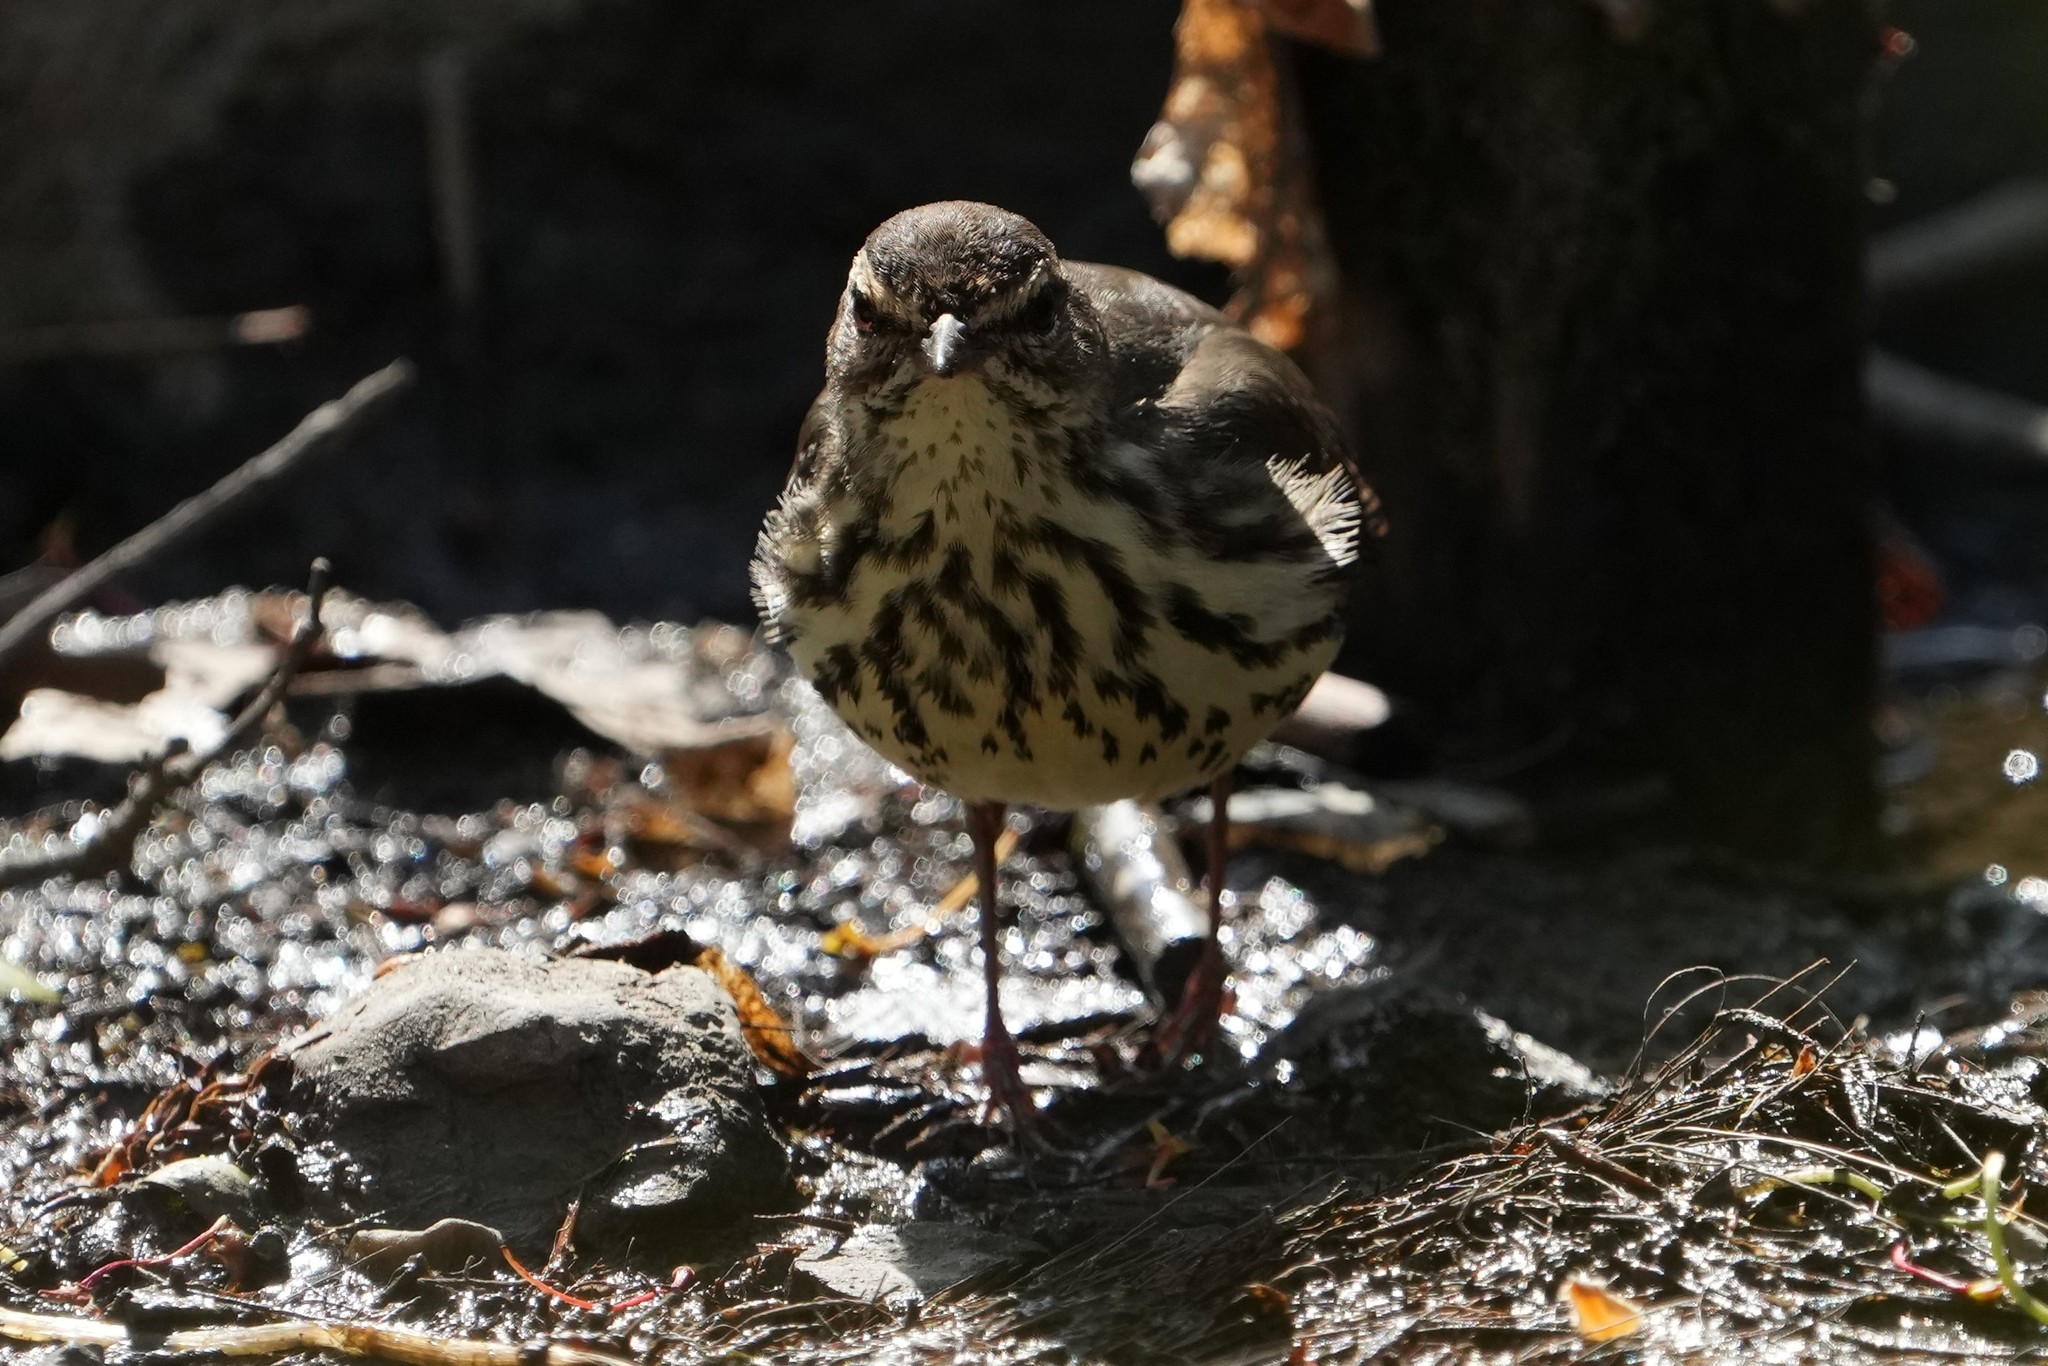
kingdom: Animalia
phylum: Chordata
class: Aves
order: Passeriformes
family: Parulidae
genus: Parkesia
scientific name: Parkesia noveboracensis
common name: Northern waterthrush
